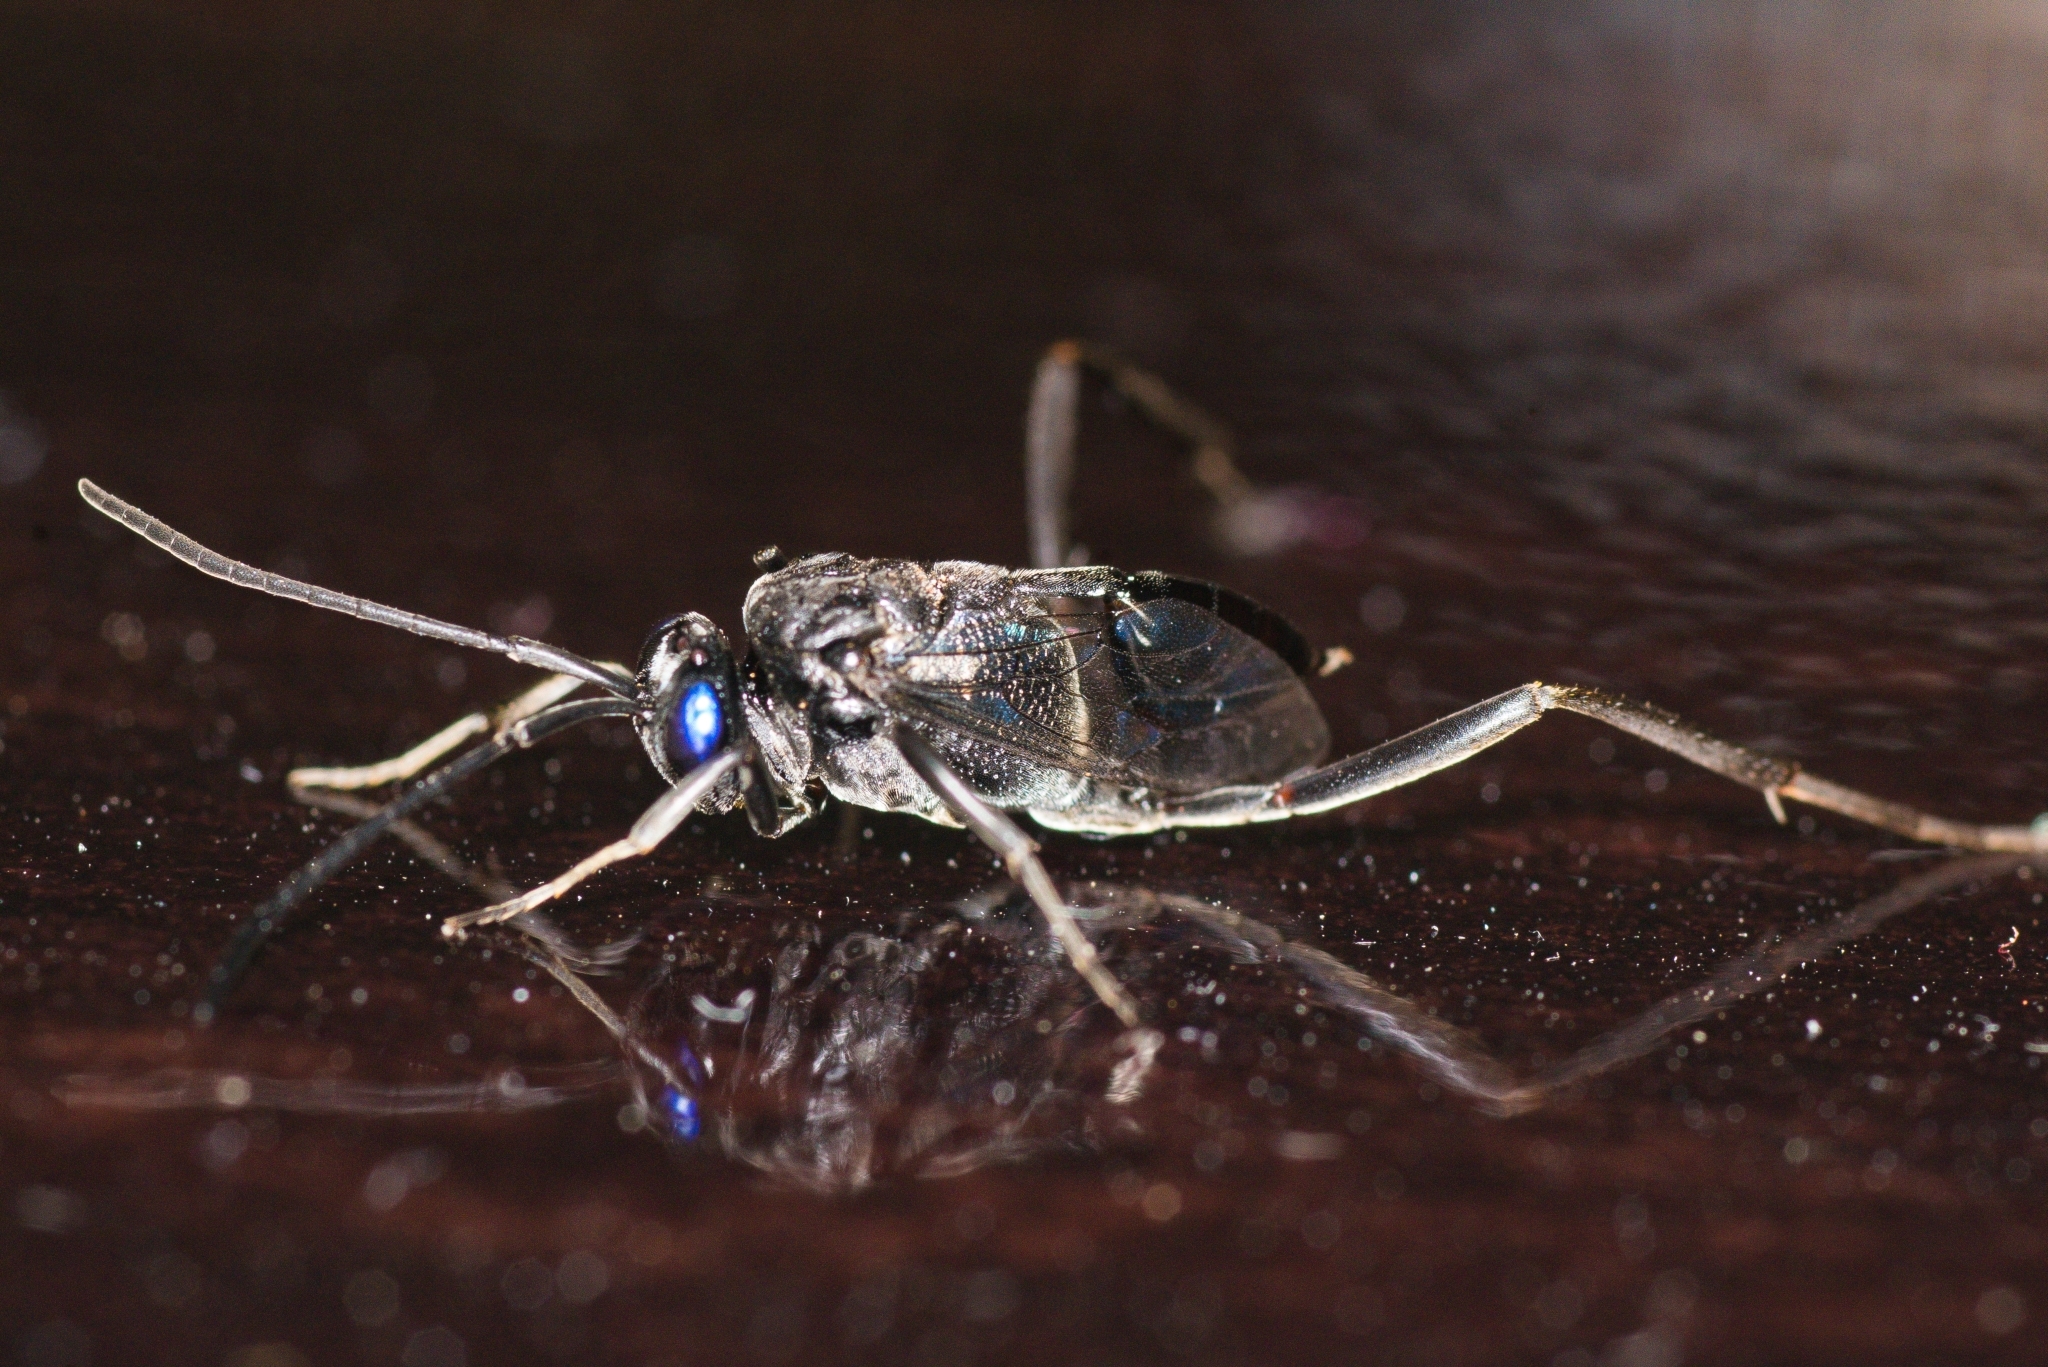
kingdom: Animalia
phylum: Arthropoda
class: Insecta
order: Hymenoptera
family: Evaniidae
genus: Evania
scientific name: Evania appendigaster
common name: Ensign wasp
